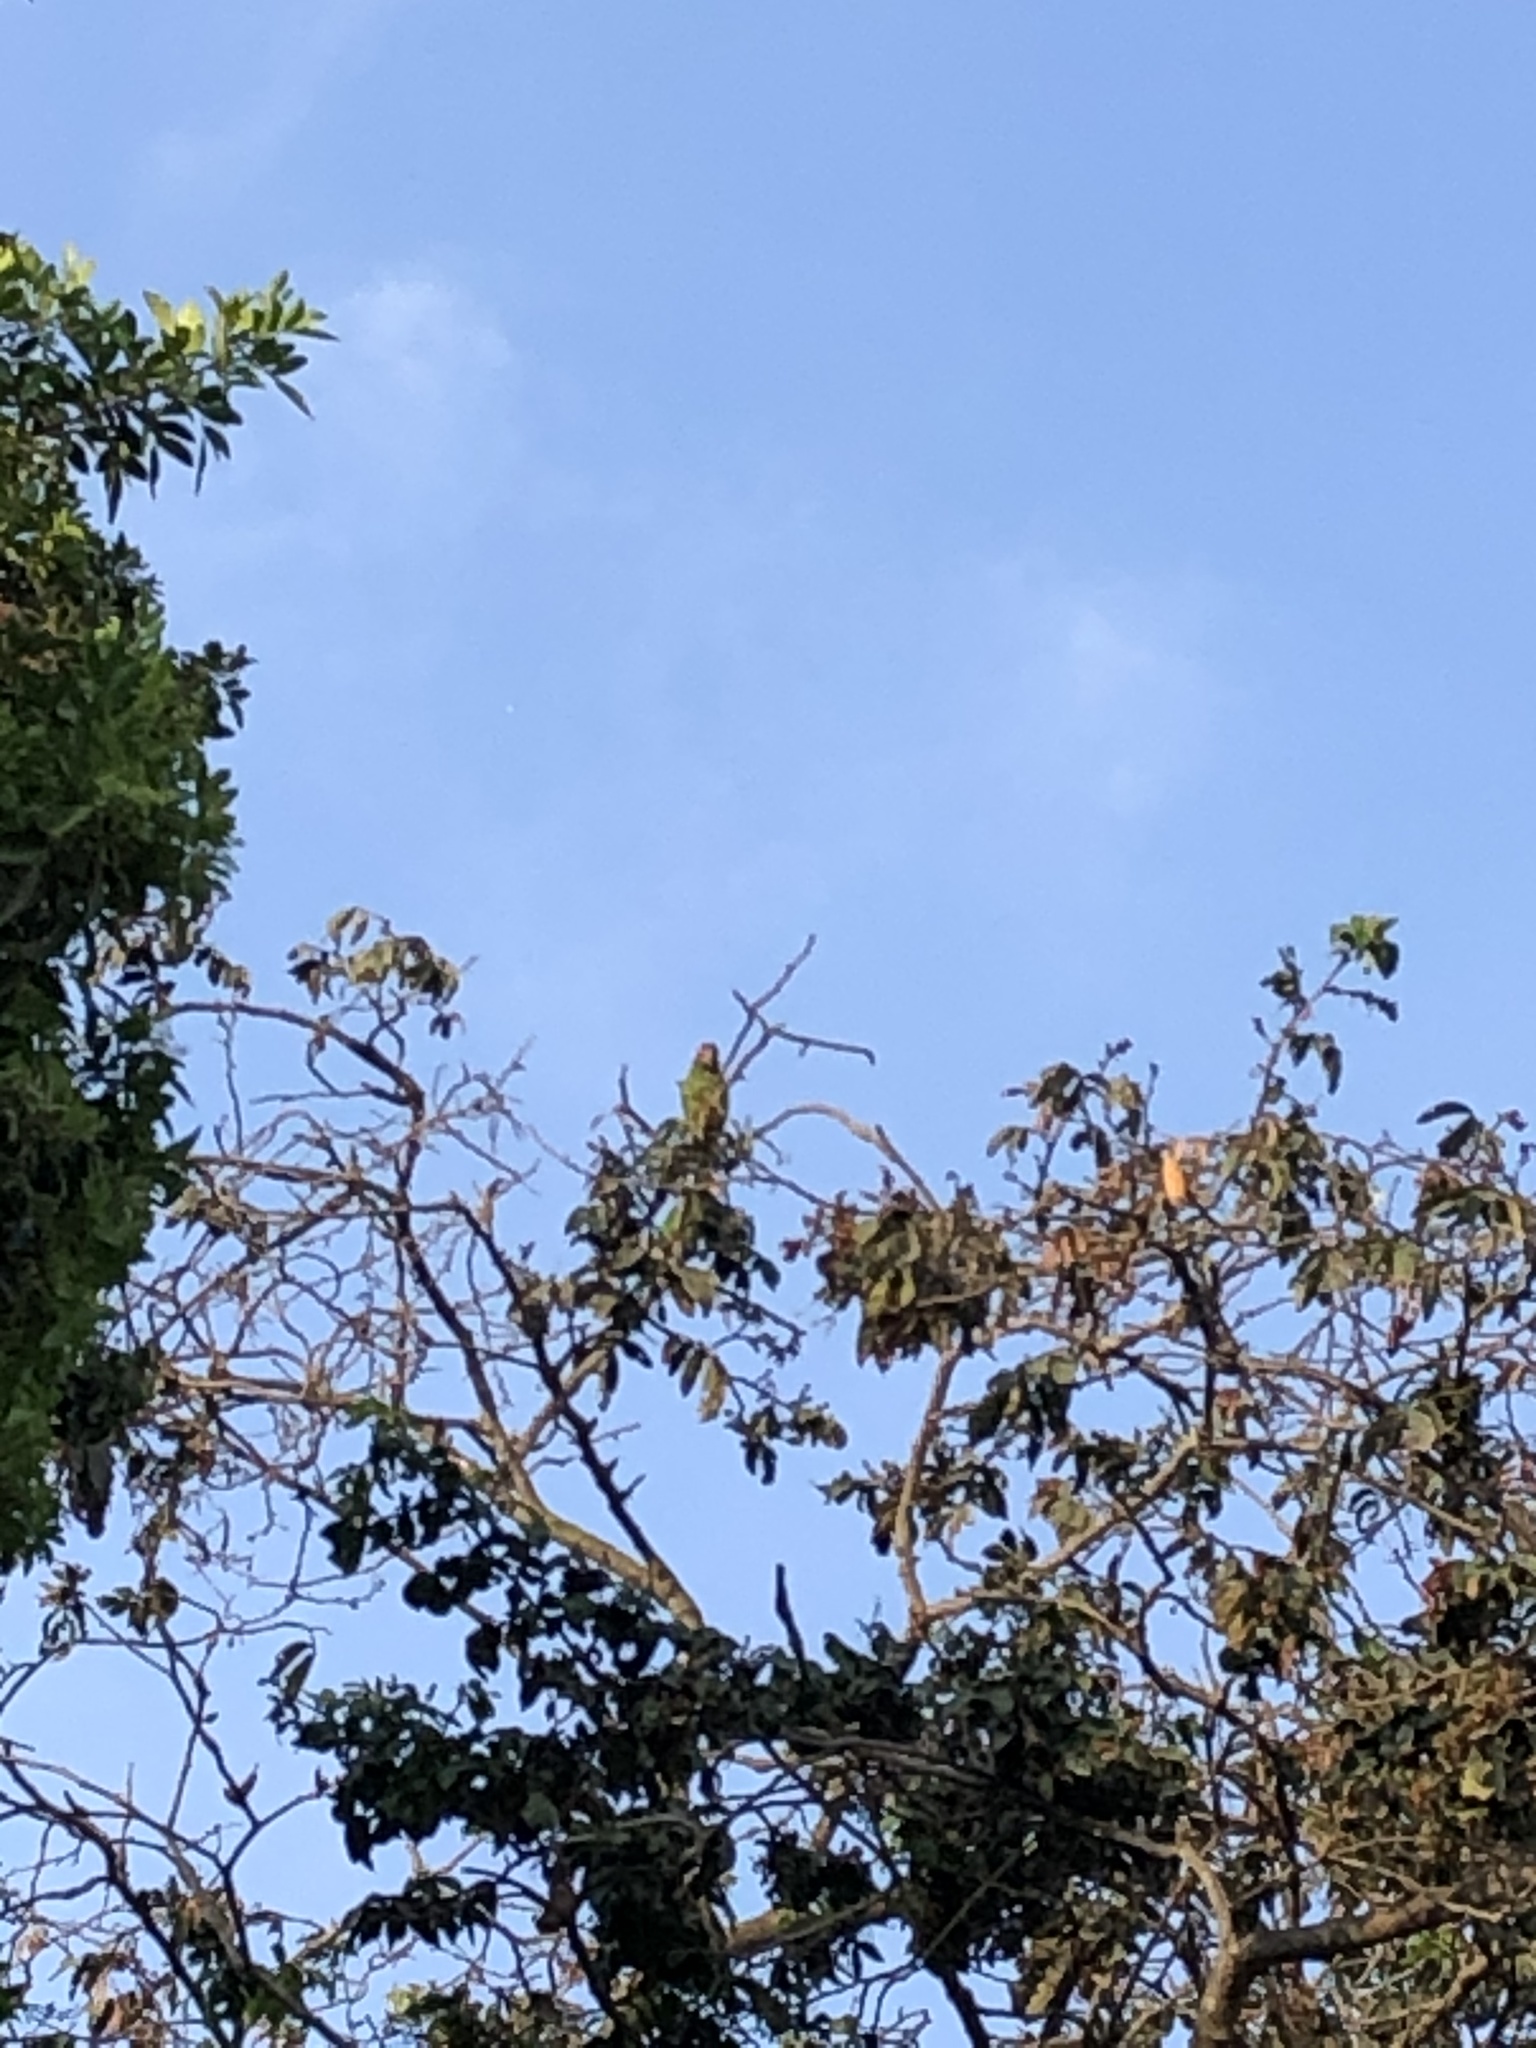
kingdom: Animalia
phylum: Chordata
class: Aves
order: Psittaciformes
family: Psittacidae
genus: Aratinga
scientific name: Aratinga erythrogenys
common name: Red-masked parakeet
